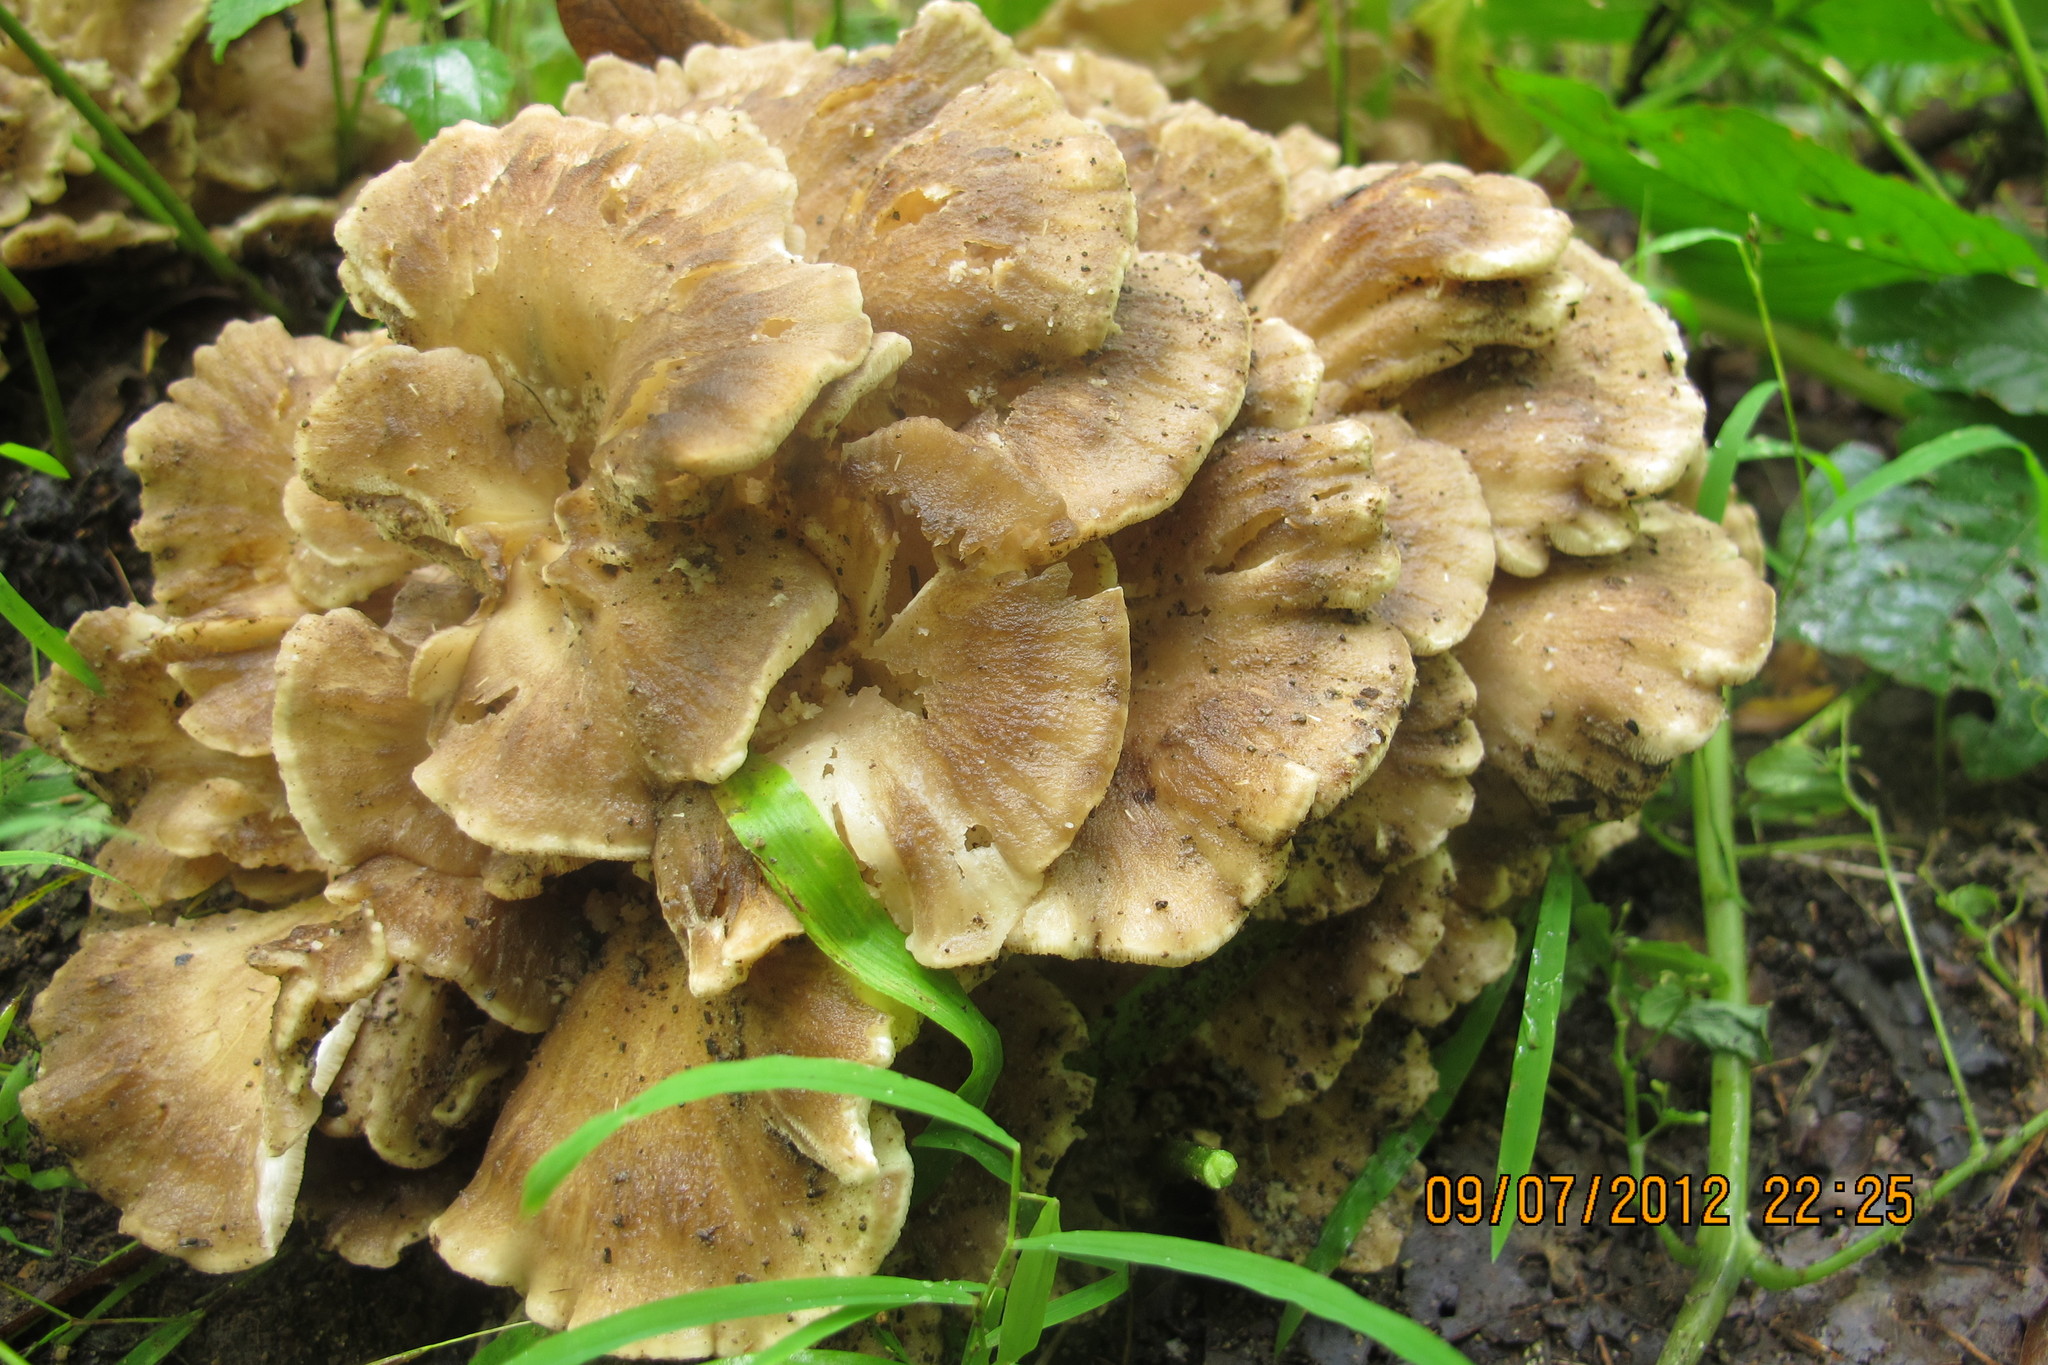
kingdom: Fungi
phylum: Basidiomycota
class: Agaricomycetes
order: Polyporales
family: Grifolaceae
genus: Grifola
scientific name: Grifola frondosa
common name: Hen of the woods
